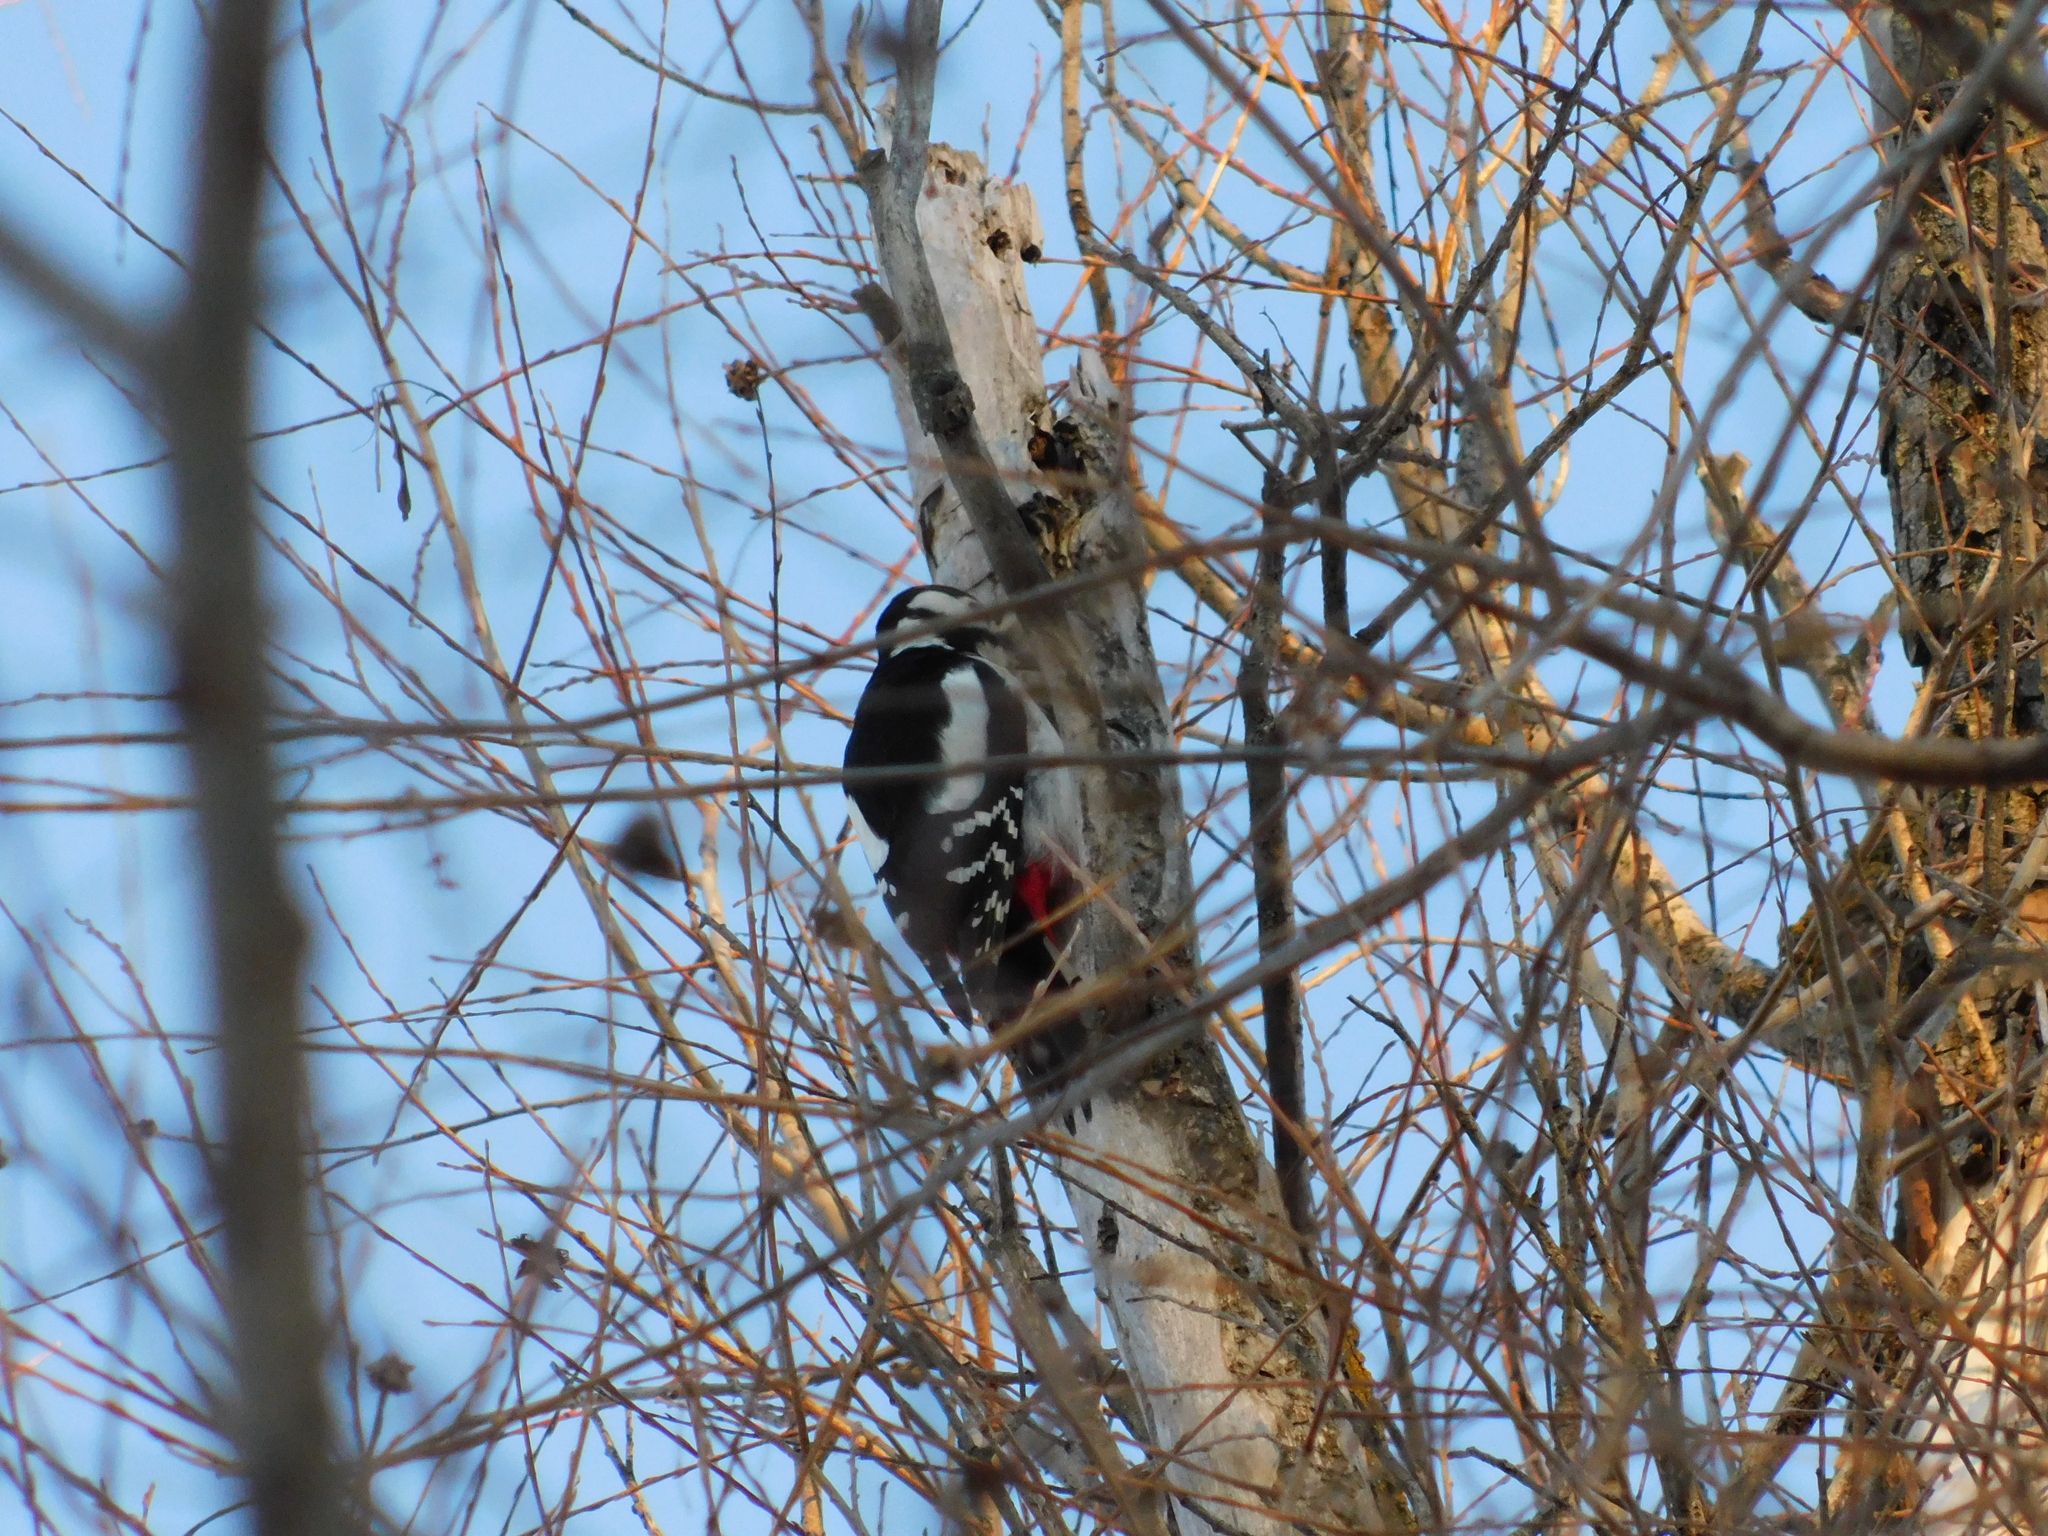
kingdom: Animalia
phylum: Chordata
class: Aves
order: Piciformes
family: Picidae
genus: Dendrocopos
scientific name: Dendrocopos major
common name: Great spotted woodpecker
